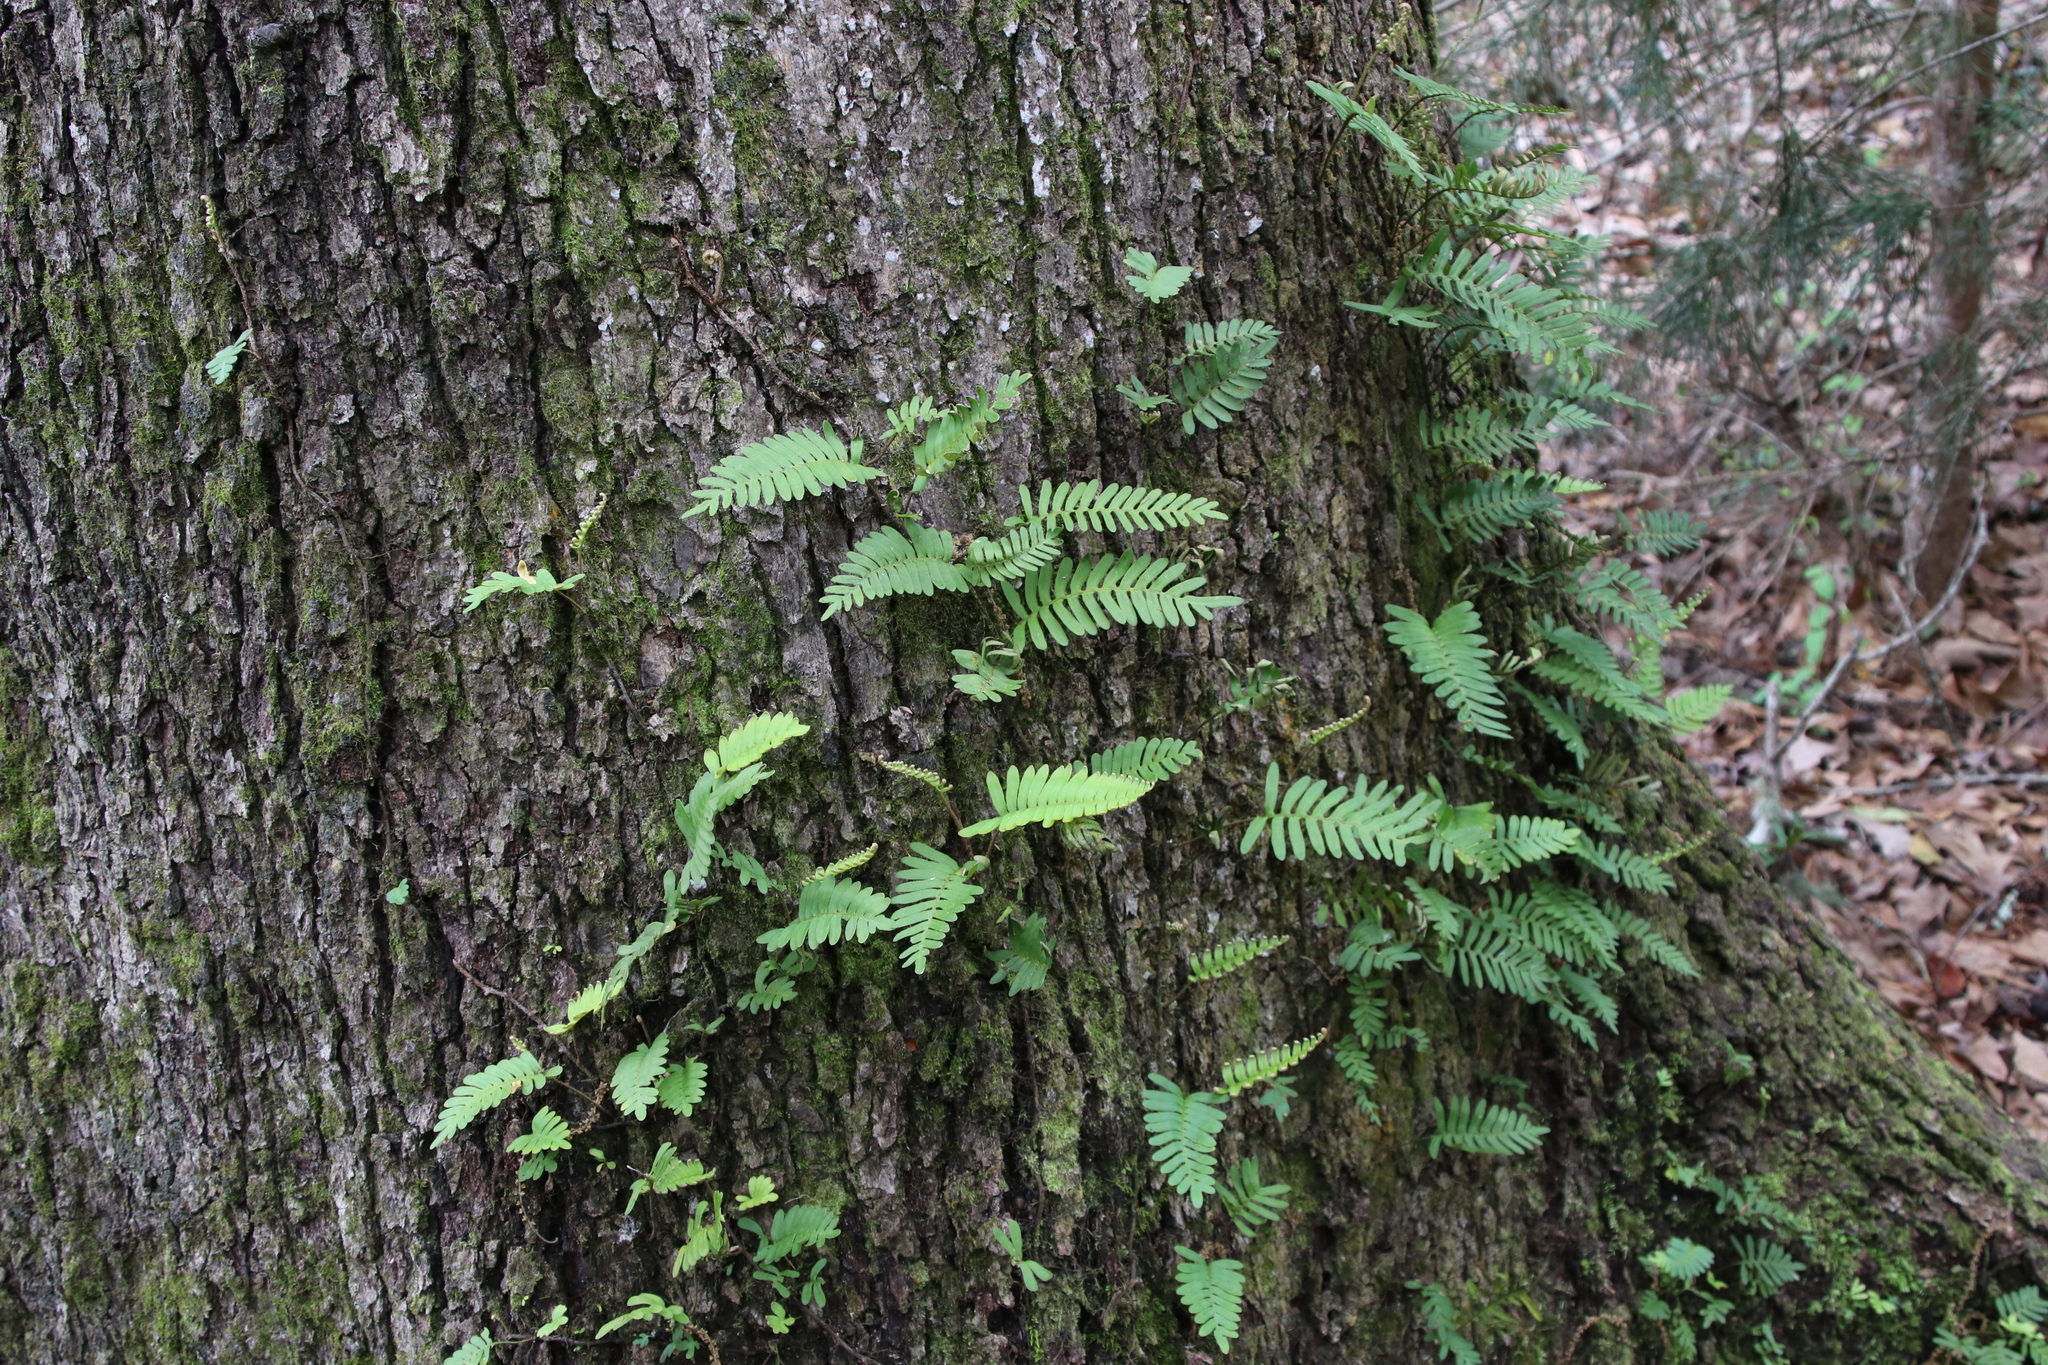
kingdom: Plantae
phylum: Tracheophyta
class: Polypodiopsida
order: Polypodiales
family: Polypodiaceae
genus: Pleopeltis
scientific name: Pleopeltis michauxiana
